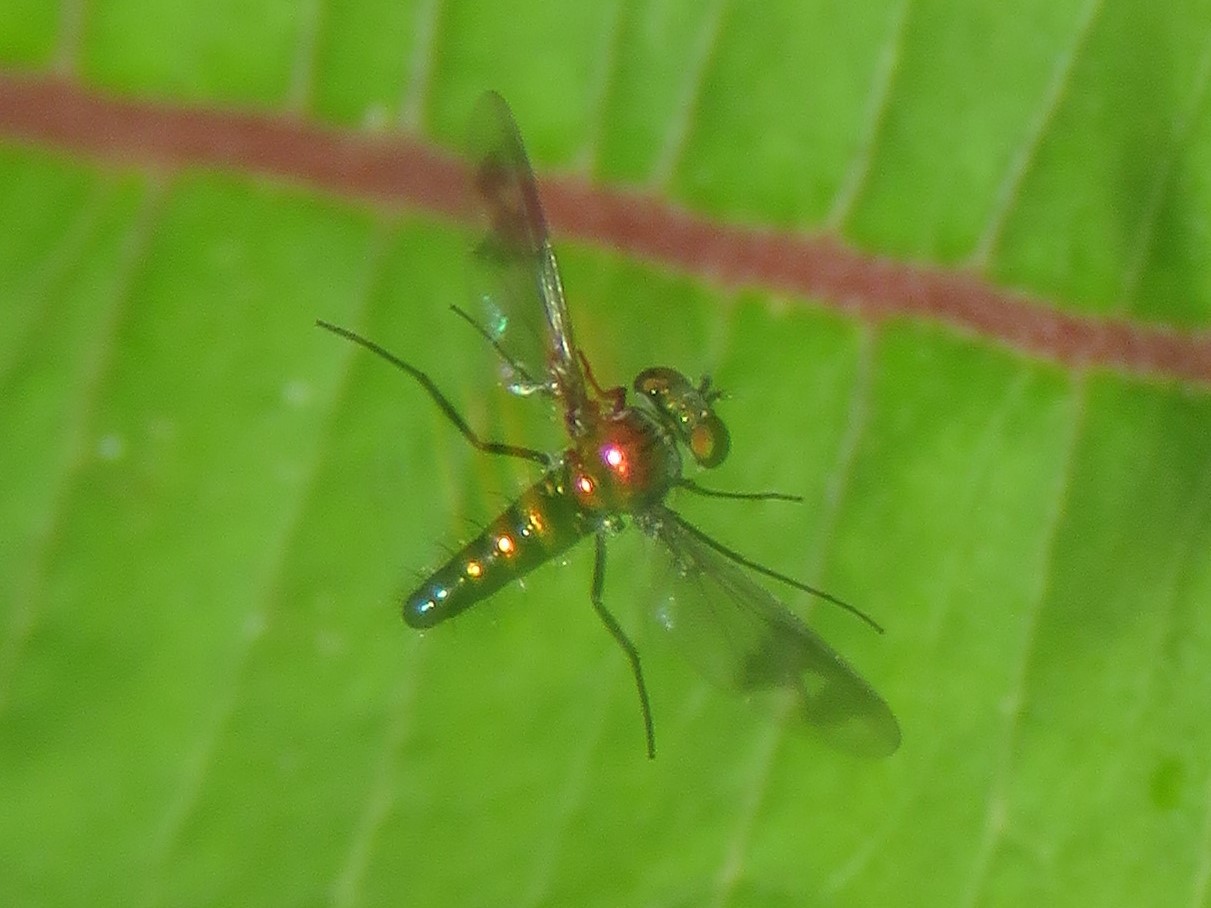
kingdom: Animalia
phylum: Arthropoda
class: Insecta
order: Diptera
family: Dolichopodidae
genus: Condylostylus
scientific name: Condylostylus patibulatus
